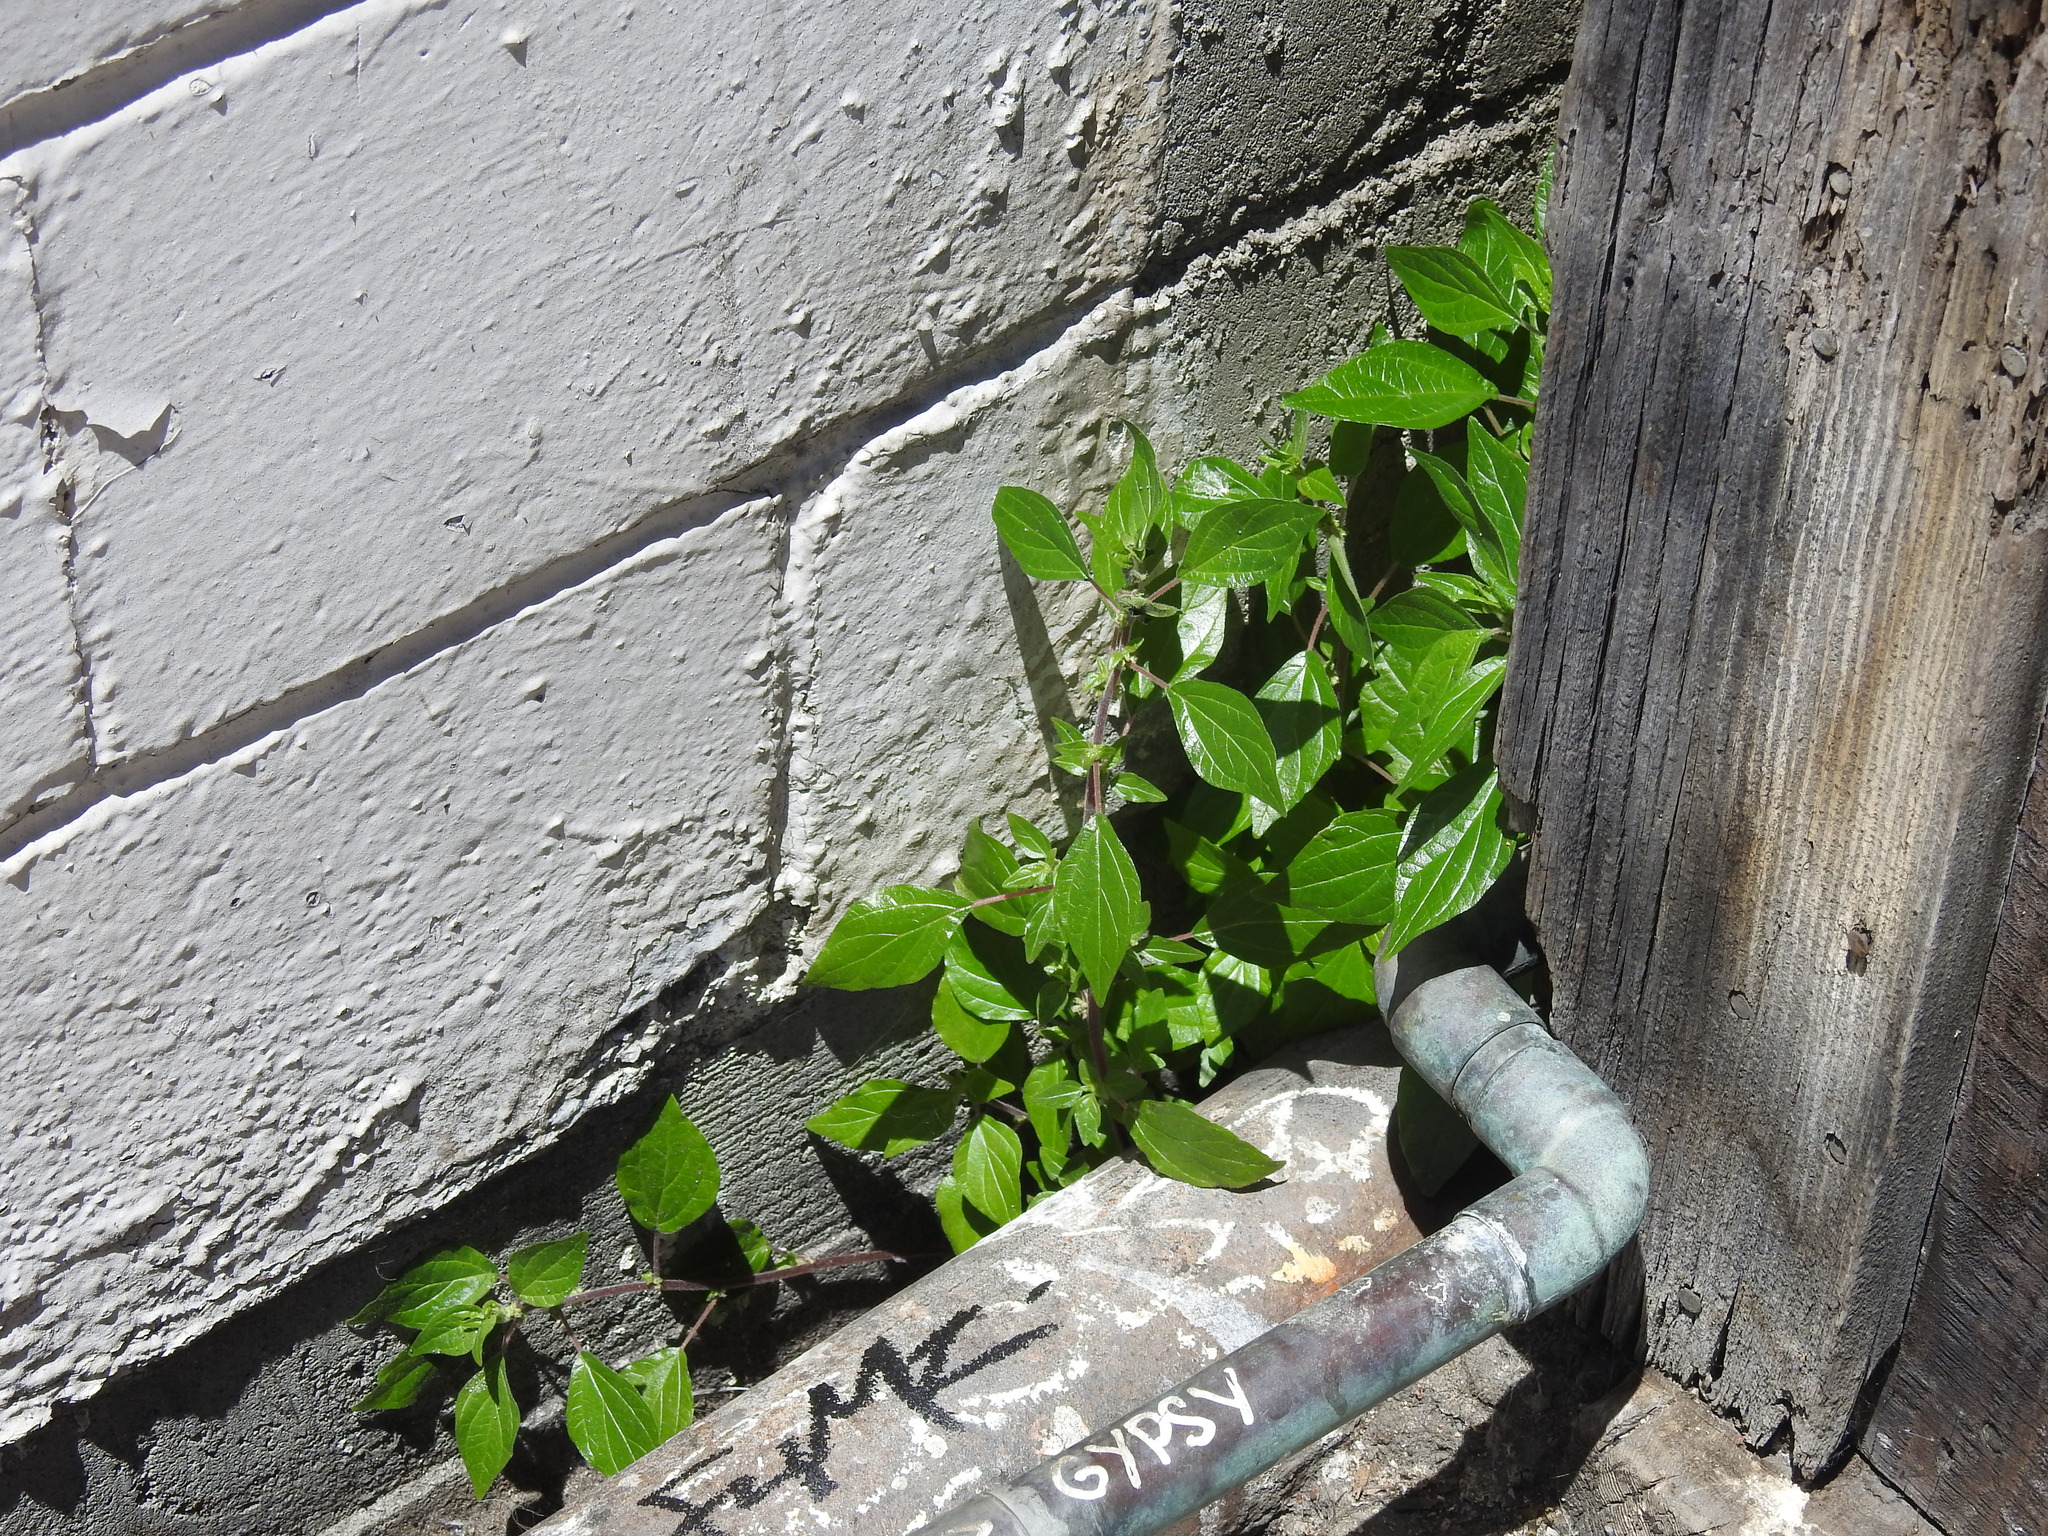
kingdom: Plantae
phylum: Tracheophyta
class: Magnoliopsida
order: Rosales
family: Urticaceae
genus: Parietaria
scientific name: Parietaria judaica
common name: Pellitory-of-the-wall
